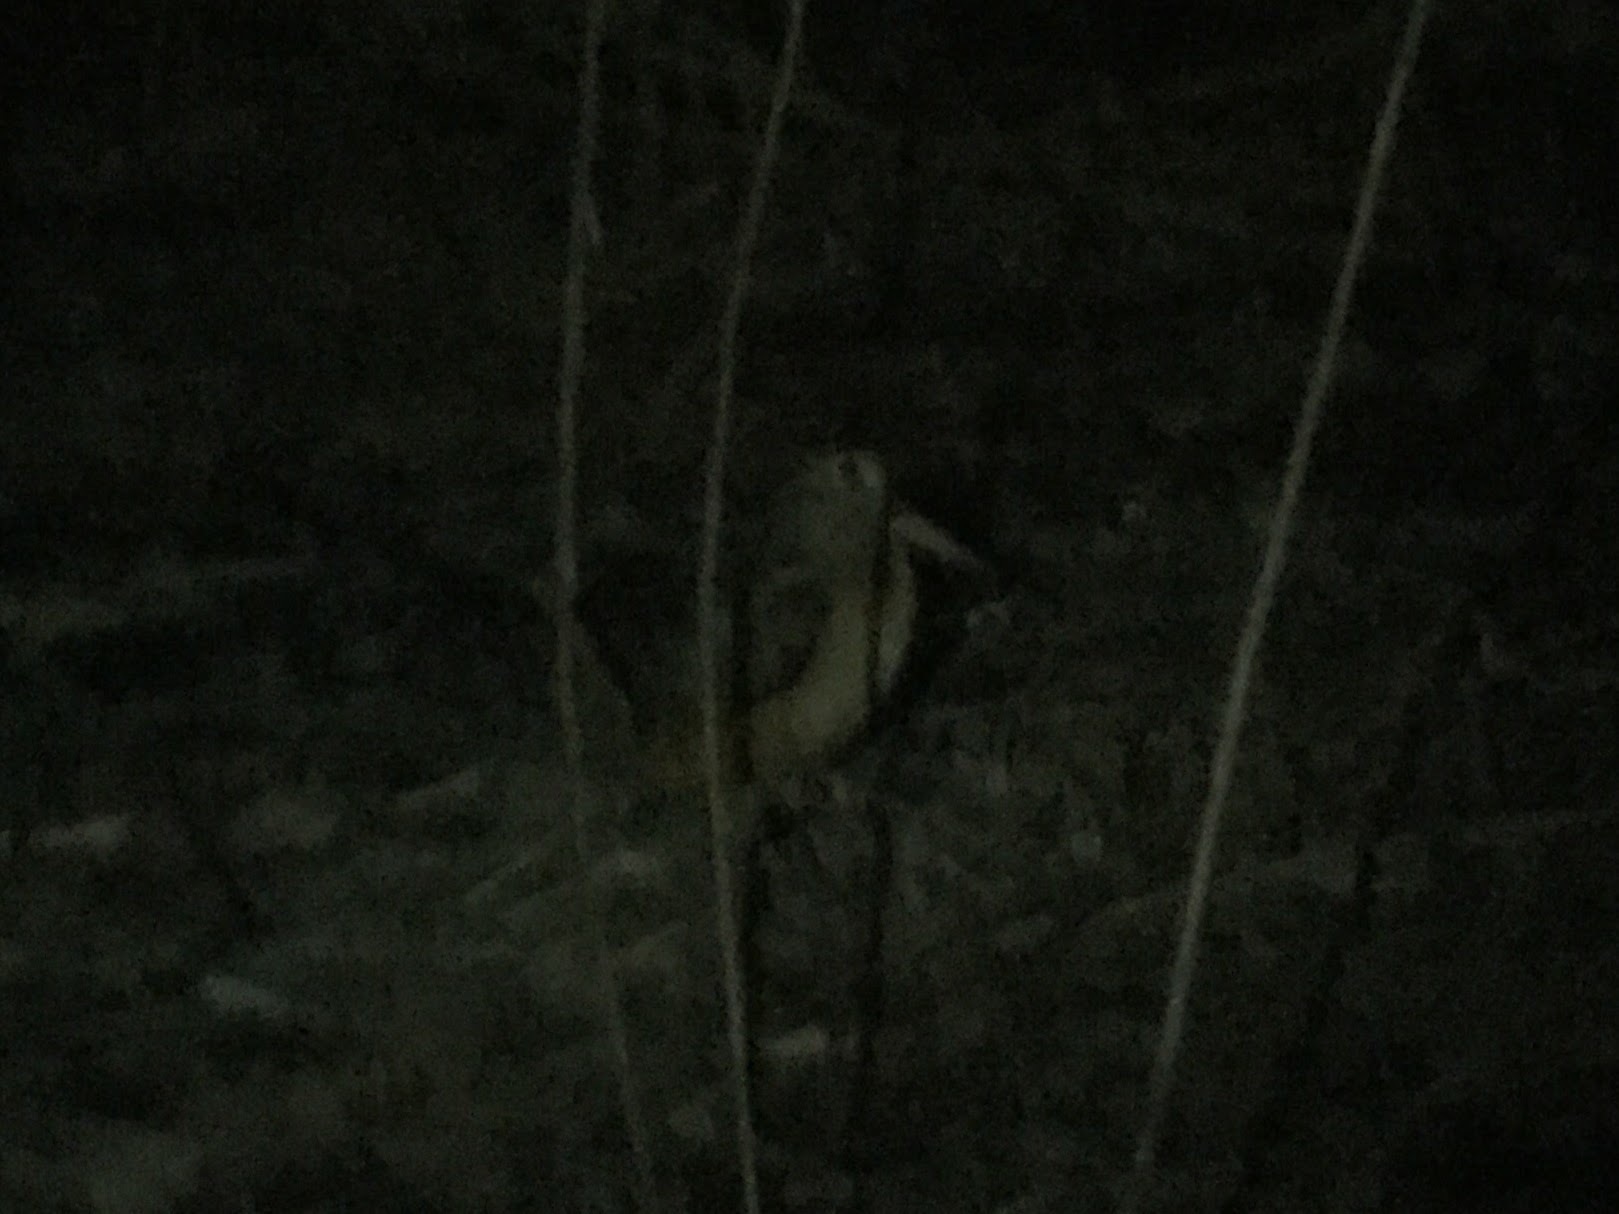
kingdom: Animalia
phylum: Chordata
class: Aves
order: Charadriiformes
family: Scolopacidae
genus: Scolopax
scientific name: Scolopax minor
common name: American woodcock
